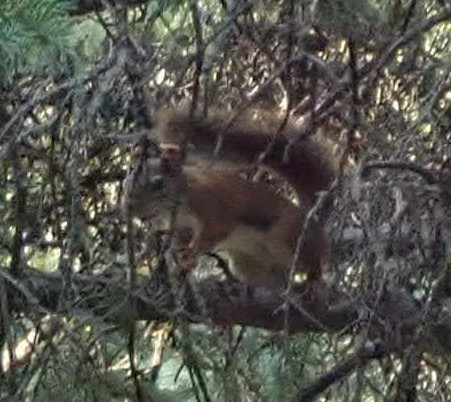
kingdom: Animalia
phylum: Chordata
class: Mammalia
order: Rodentia
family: Sciuridae
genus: Tamiasciurus
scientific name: Tamiasciurus hudsonicus
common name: Red squirrel
